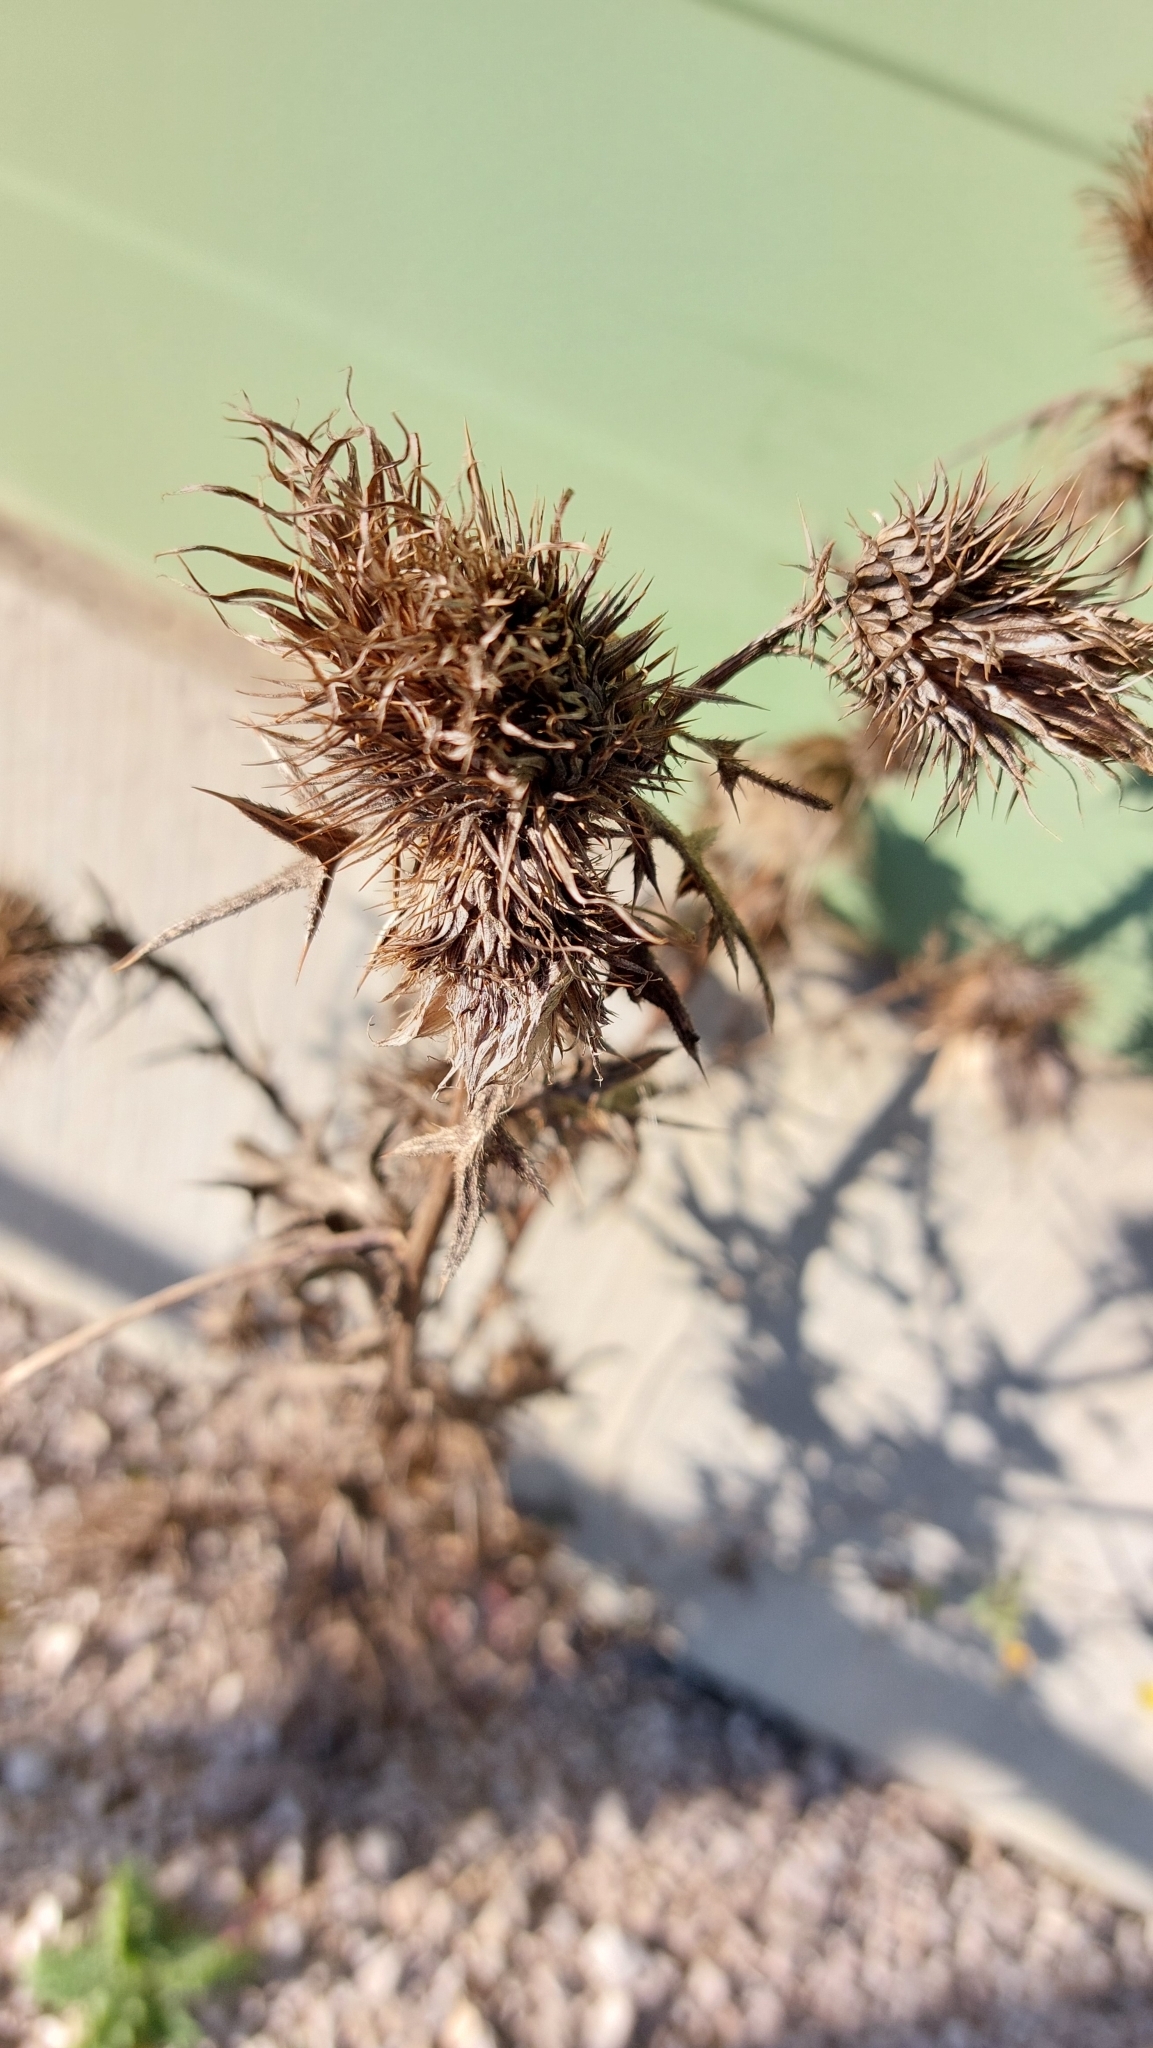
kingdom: Plantae
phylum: Tracheophyta
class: Magnoliopsida
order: Asterales
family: Asteraceae
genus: Cirsium
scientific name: Cirsium vulgare
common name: Bull thistle
